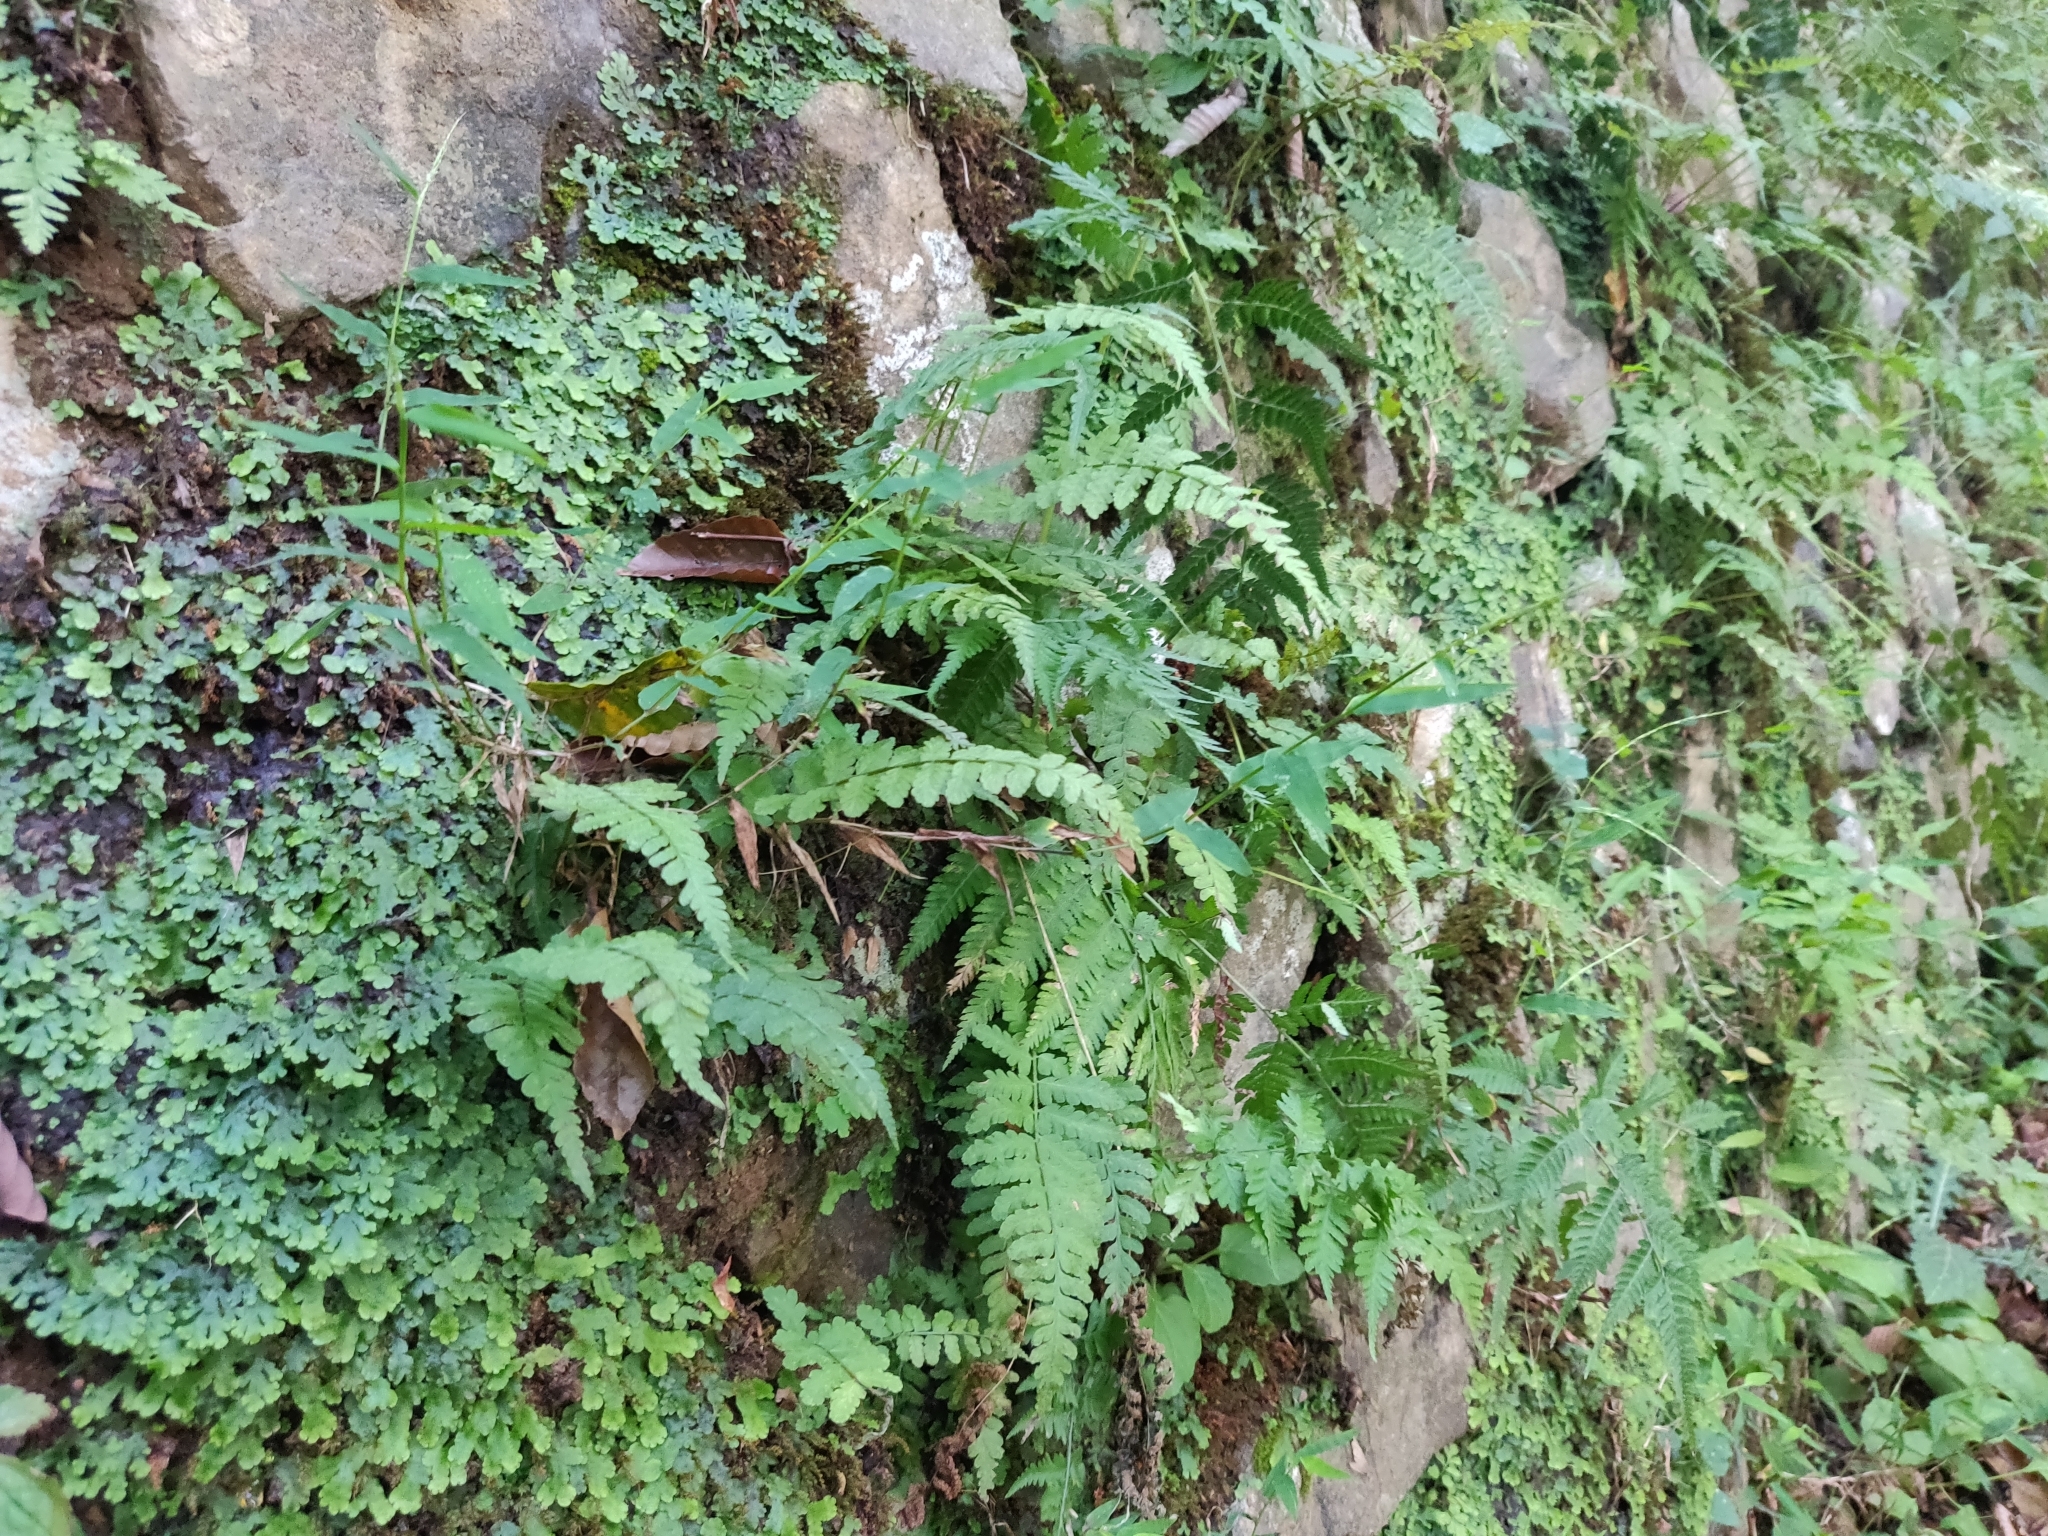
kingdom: Plantae
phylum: Marchantiophyta
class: Marchantiopsida
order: Marchantiales
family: Conocephalaceae
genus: Sandea
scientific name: Sandea japonica
